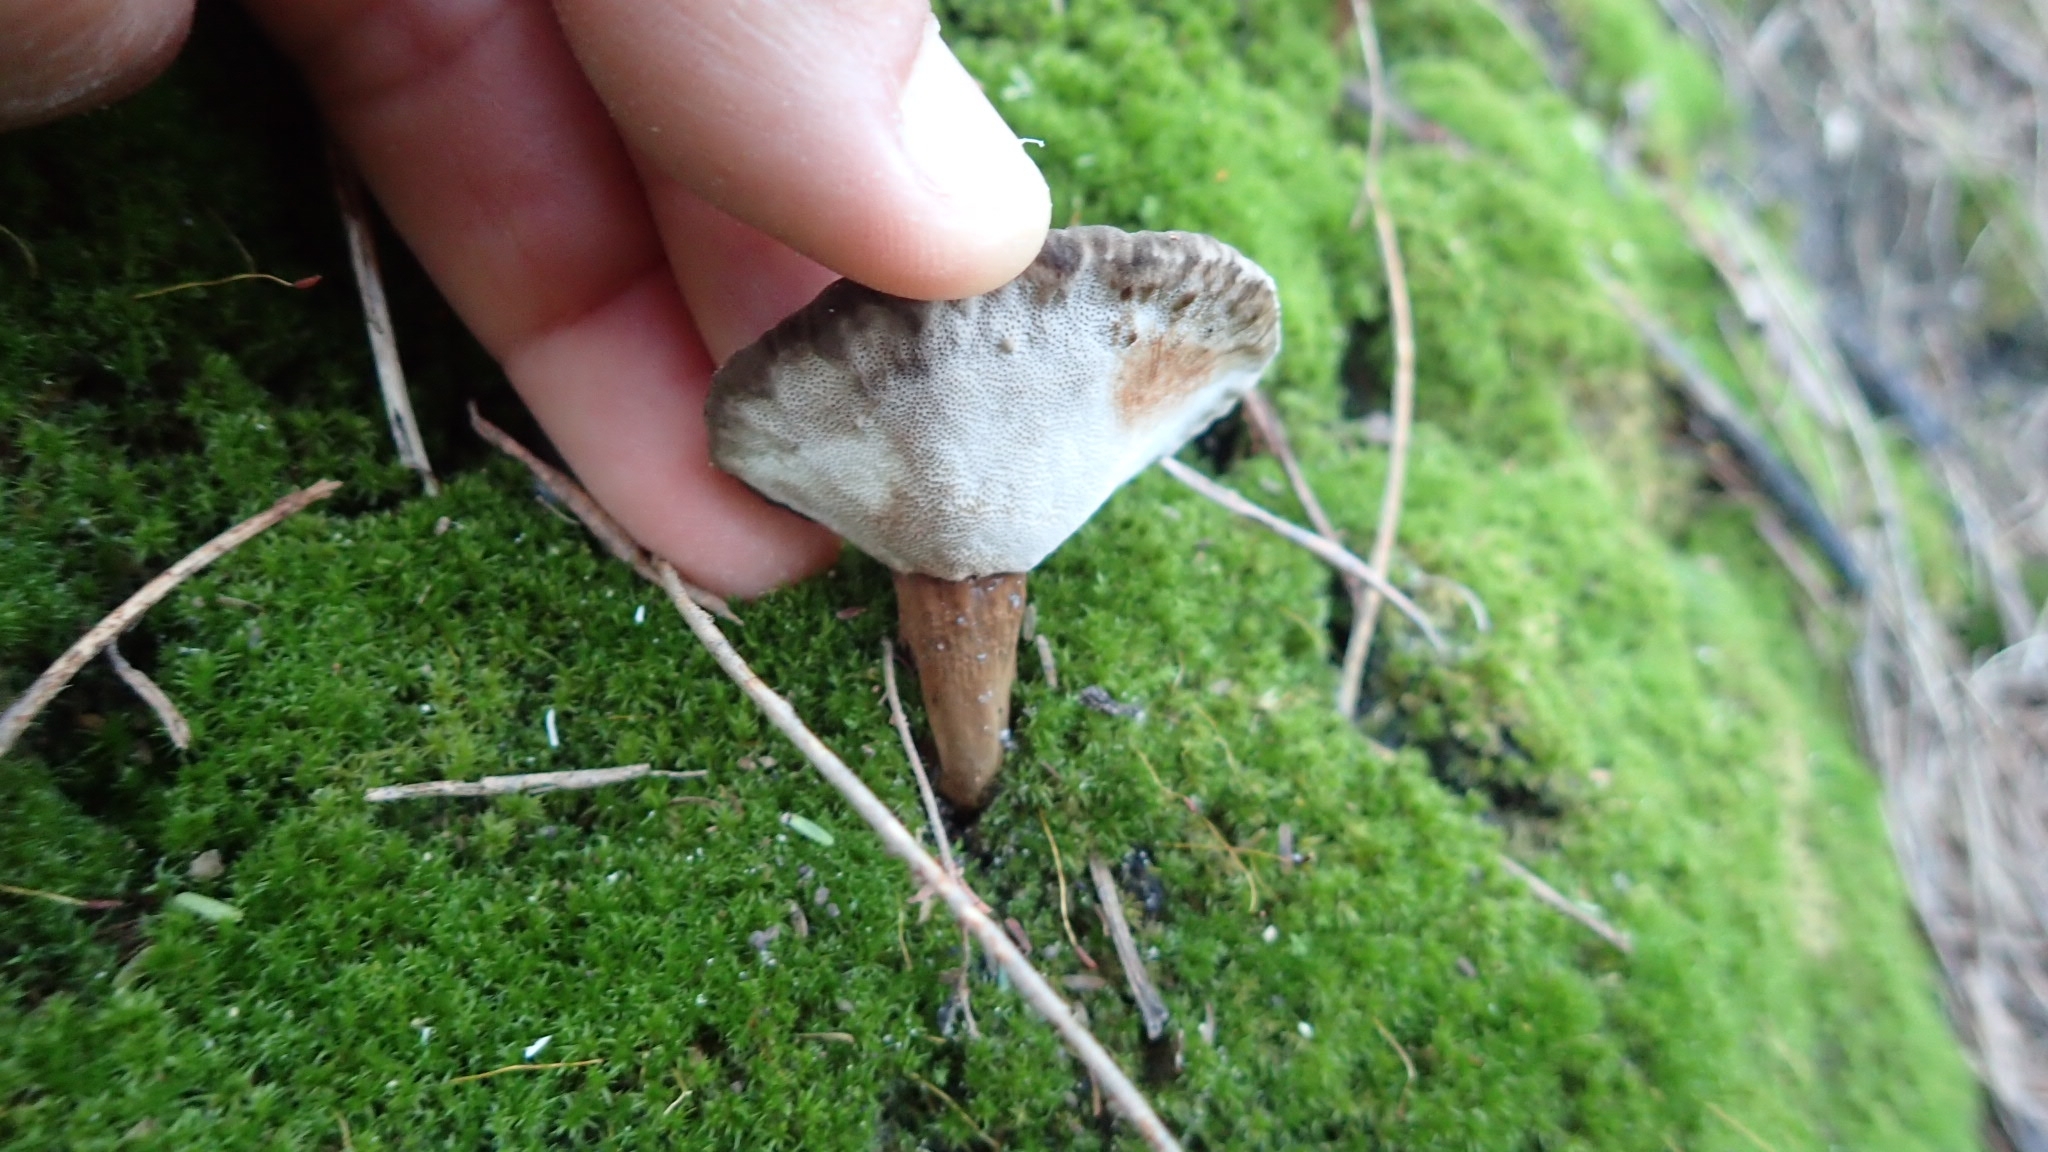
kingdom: Fungi
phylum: Basidiomycota
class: Agaricomycetes
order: Polyporales
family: Ganodermataceae
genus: Sanguinoderma
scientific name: Sanguinoderma rude
